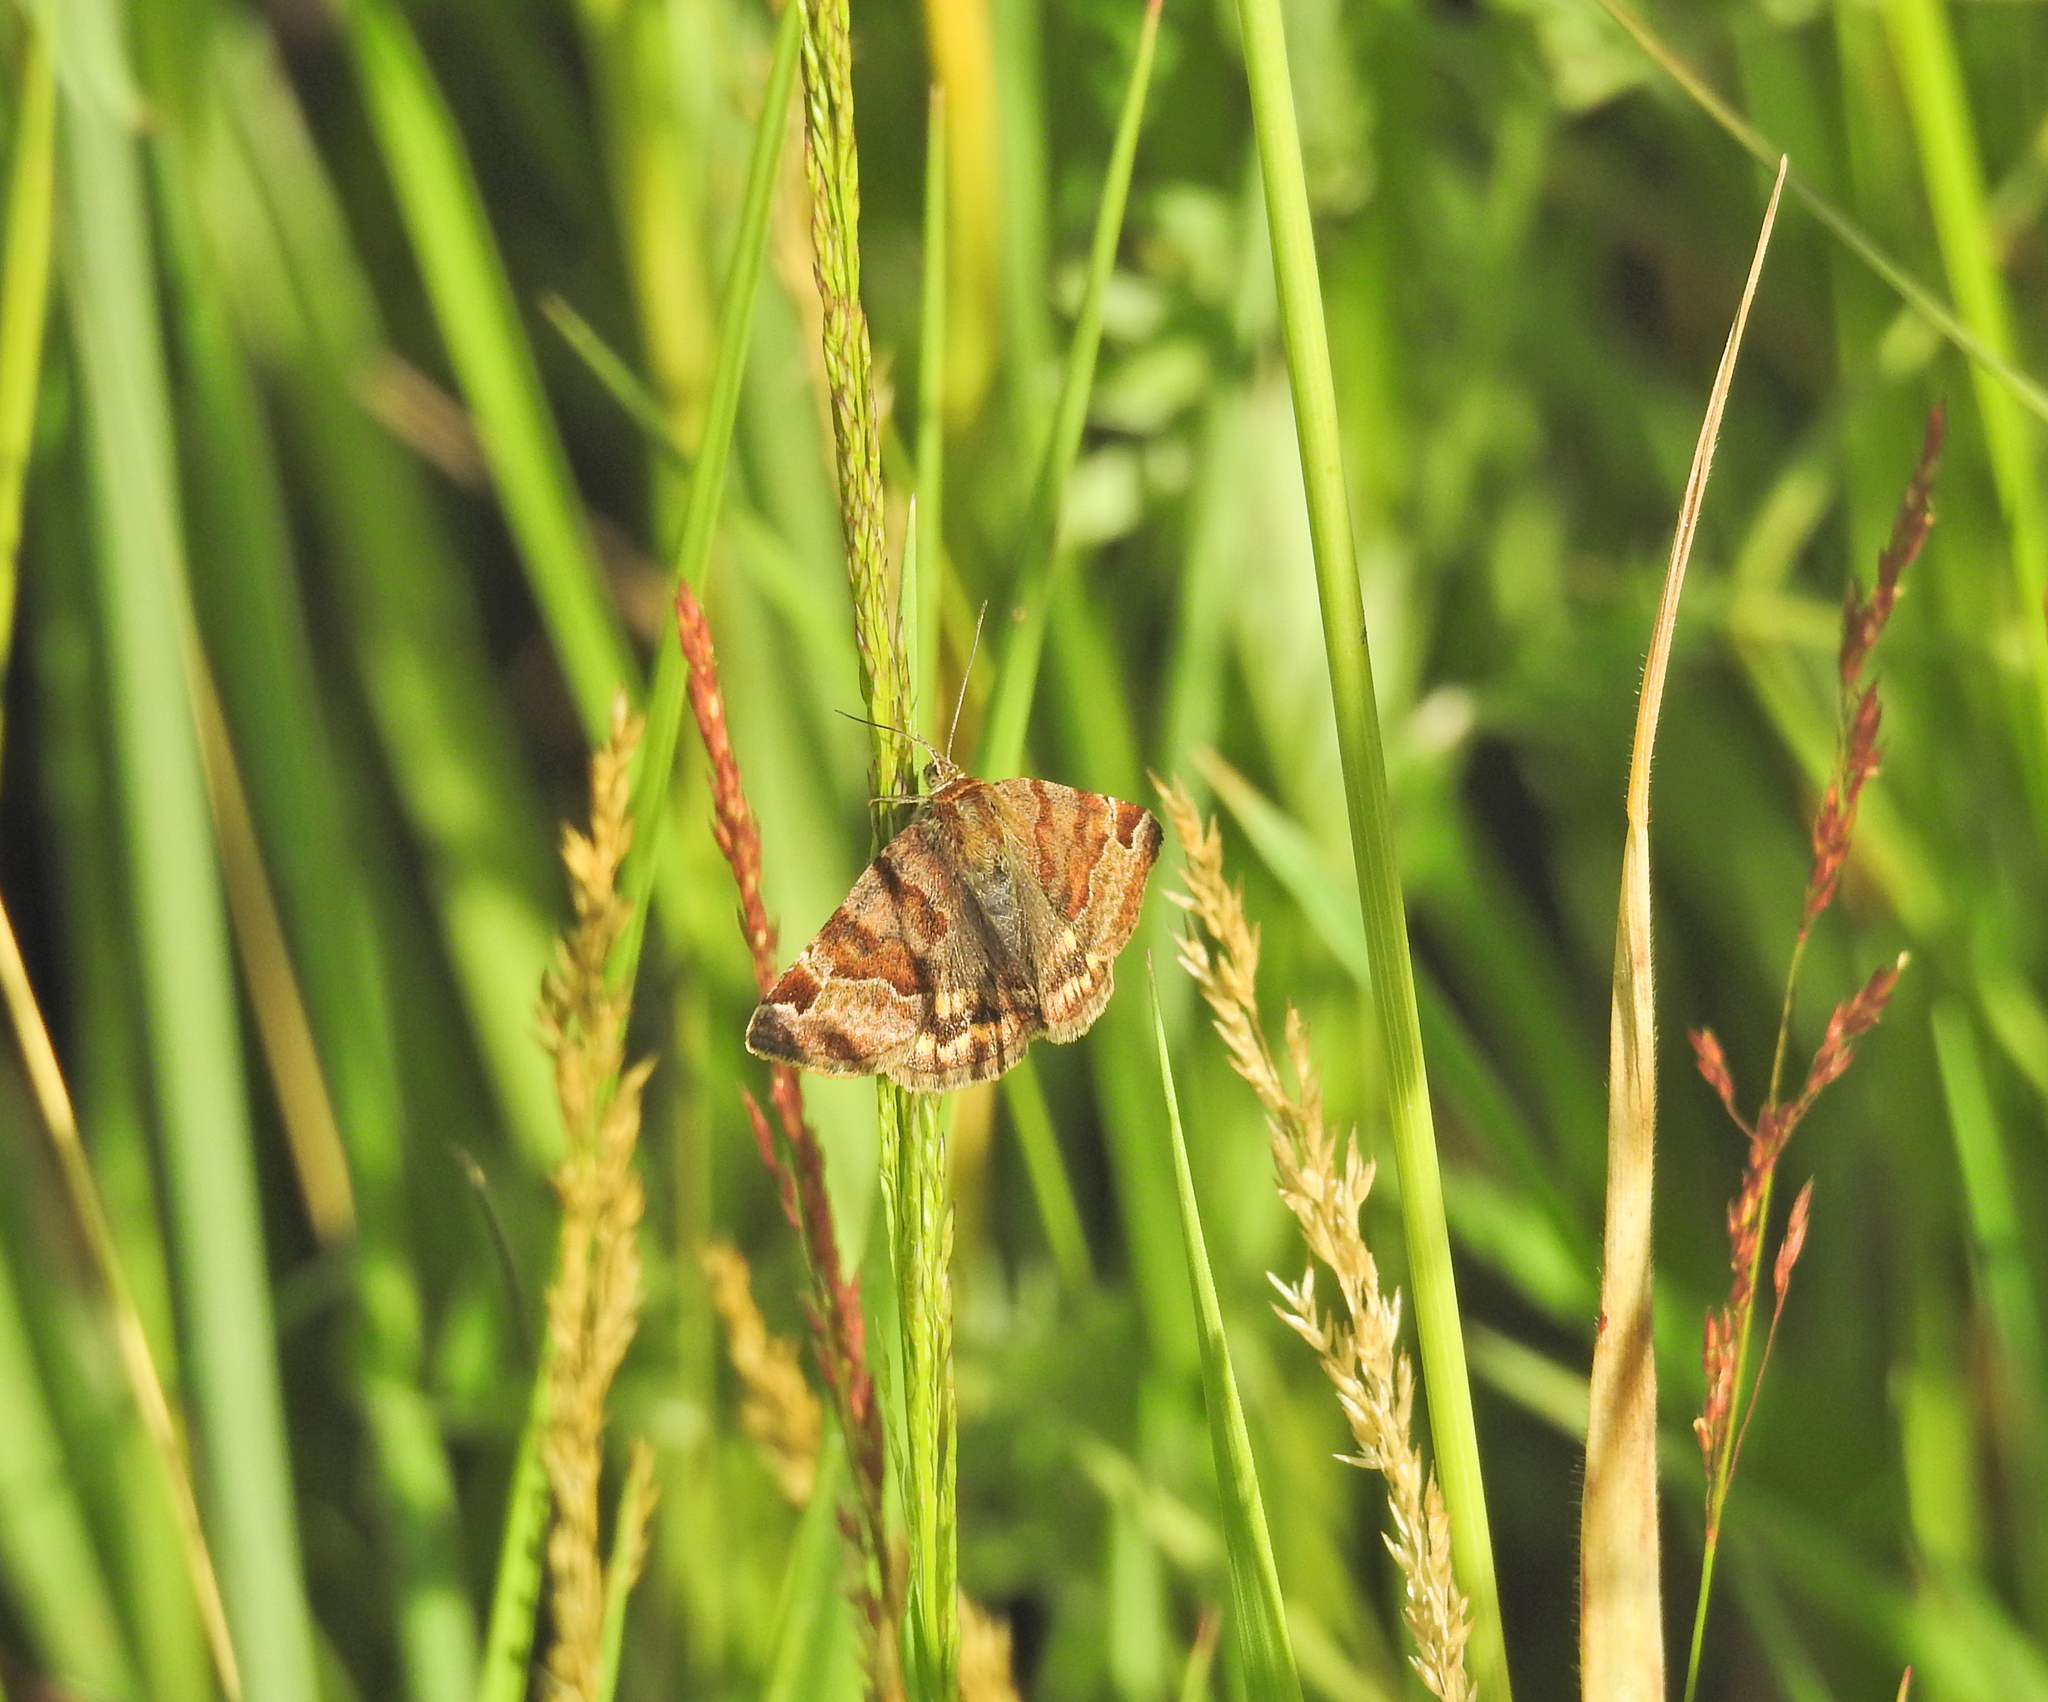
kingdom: Animalia
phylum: Arthropoda
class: Insecta
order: Lepidoptera
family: Erebidae
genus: Euclidia
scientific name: Euclidia glyphica
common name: Burnet companion
